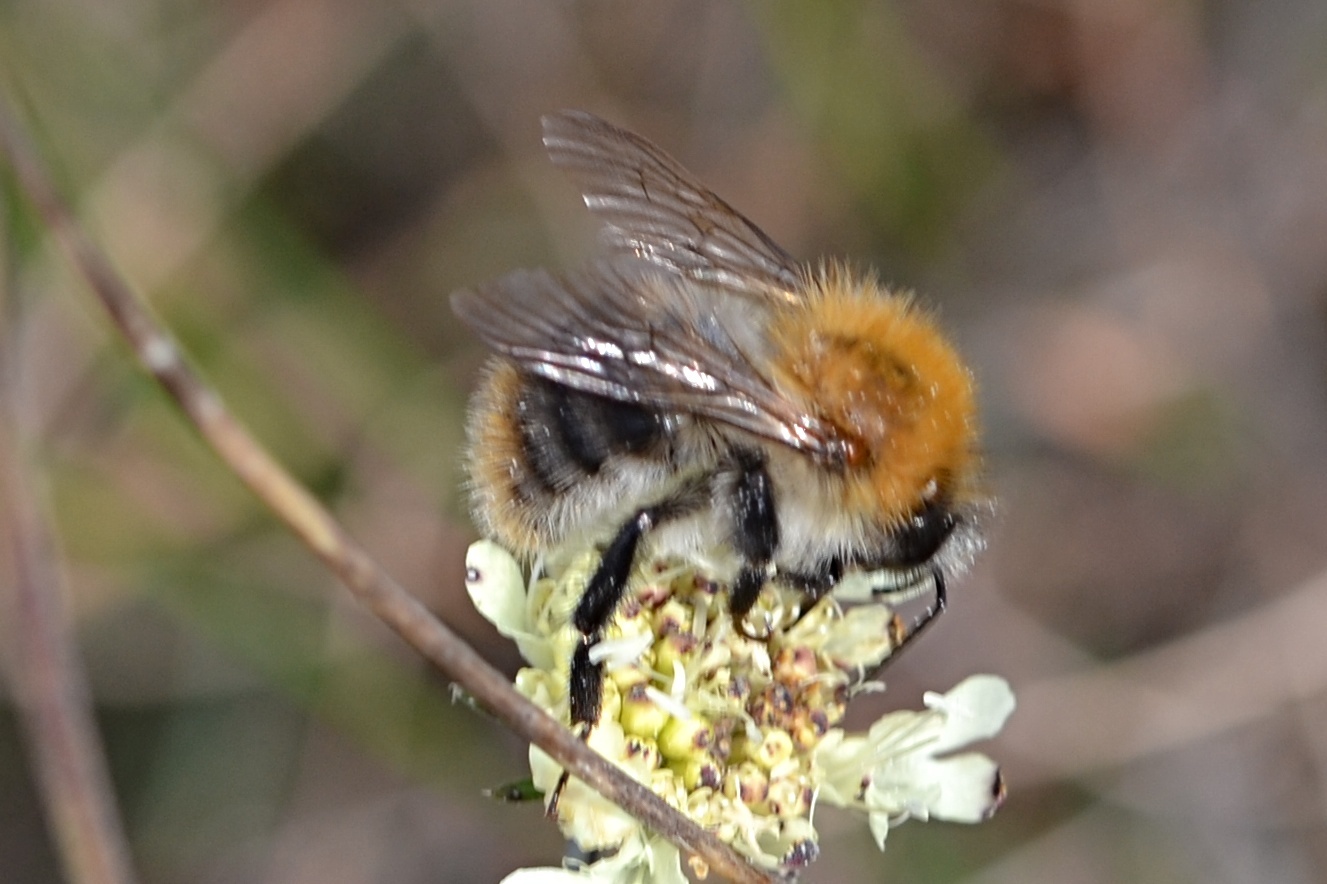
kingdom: Animalia
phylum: Arthropoda
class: Insecta
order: Hymenoptera
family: Apidae
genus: Bombus
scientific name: Bombus pascuorum
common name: Common carder bee
